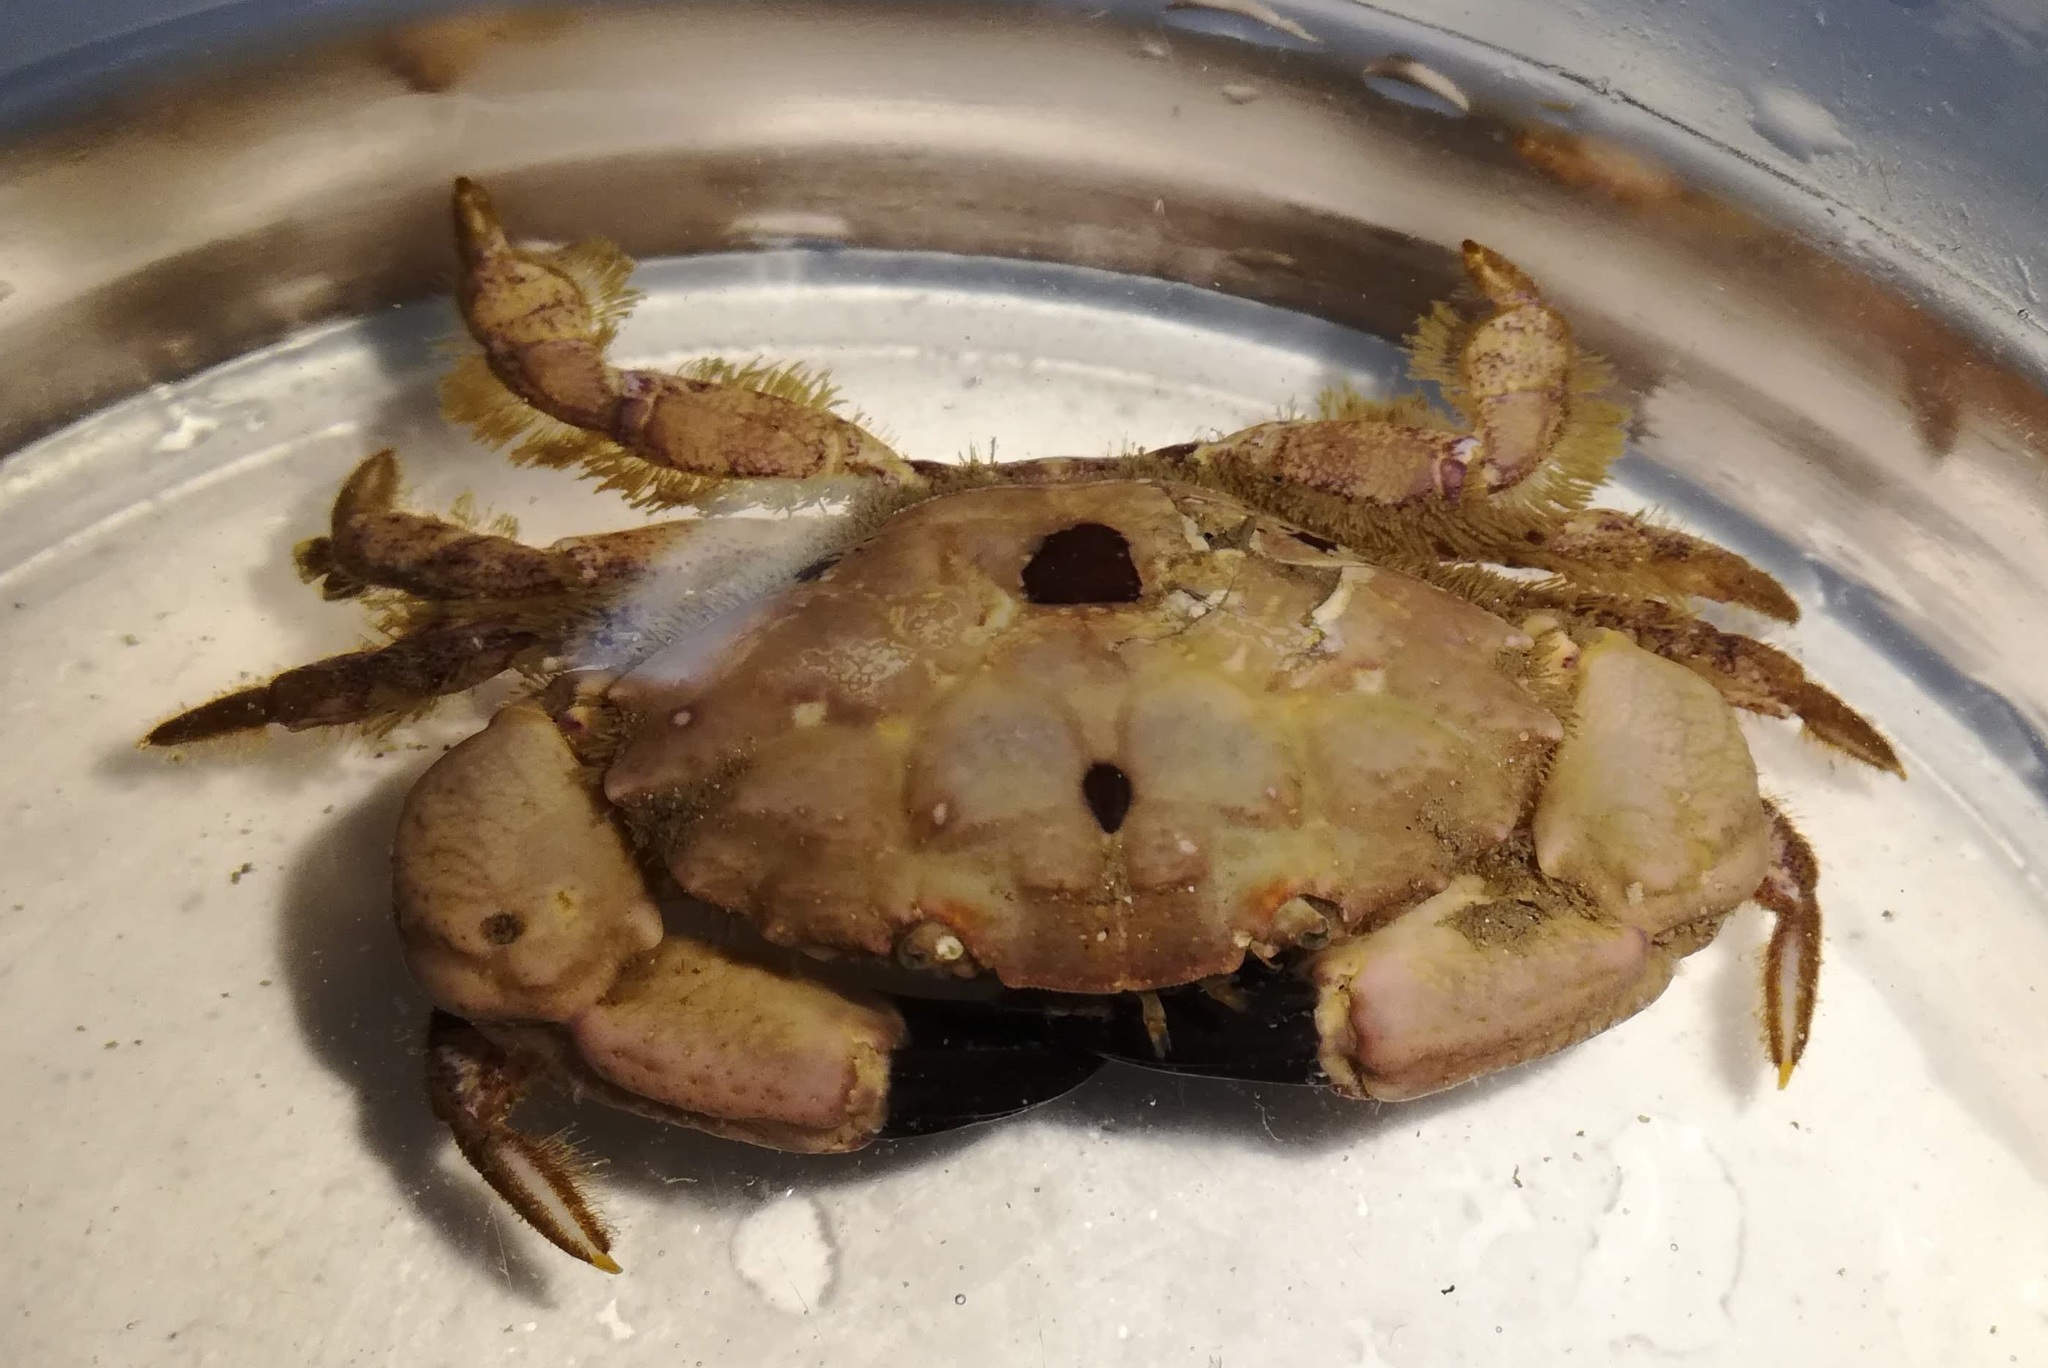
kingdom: Animalia
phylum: Arthropoda
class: Malacostraca
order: Decapoda
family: Xanthidae
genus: Xantho
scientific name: Xantho pilipes
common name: Risso's crab
